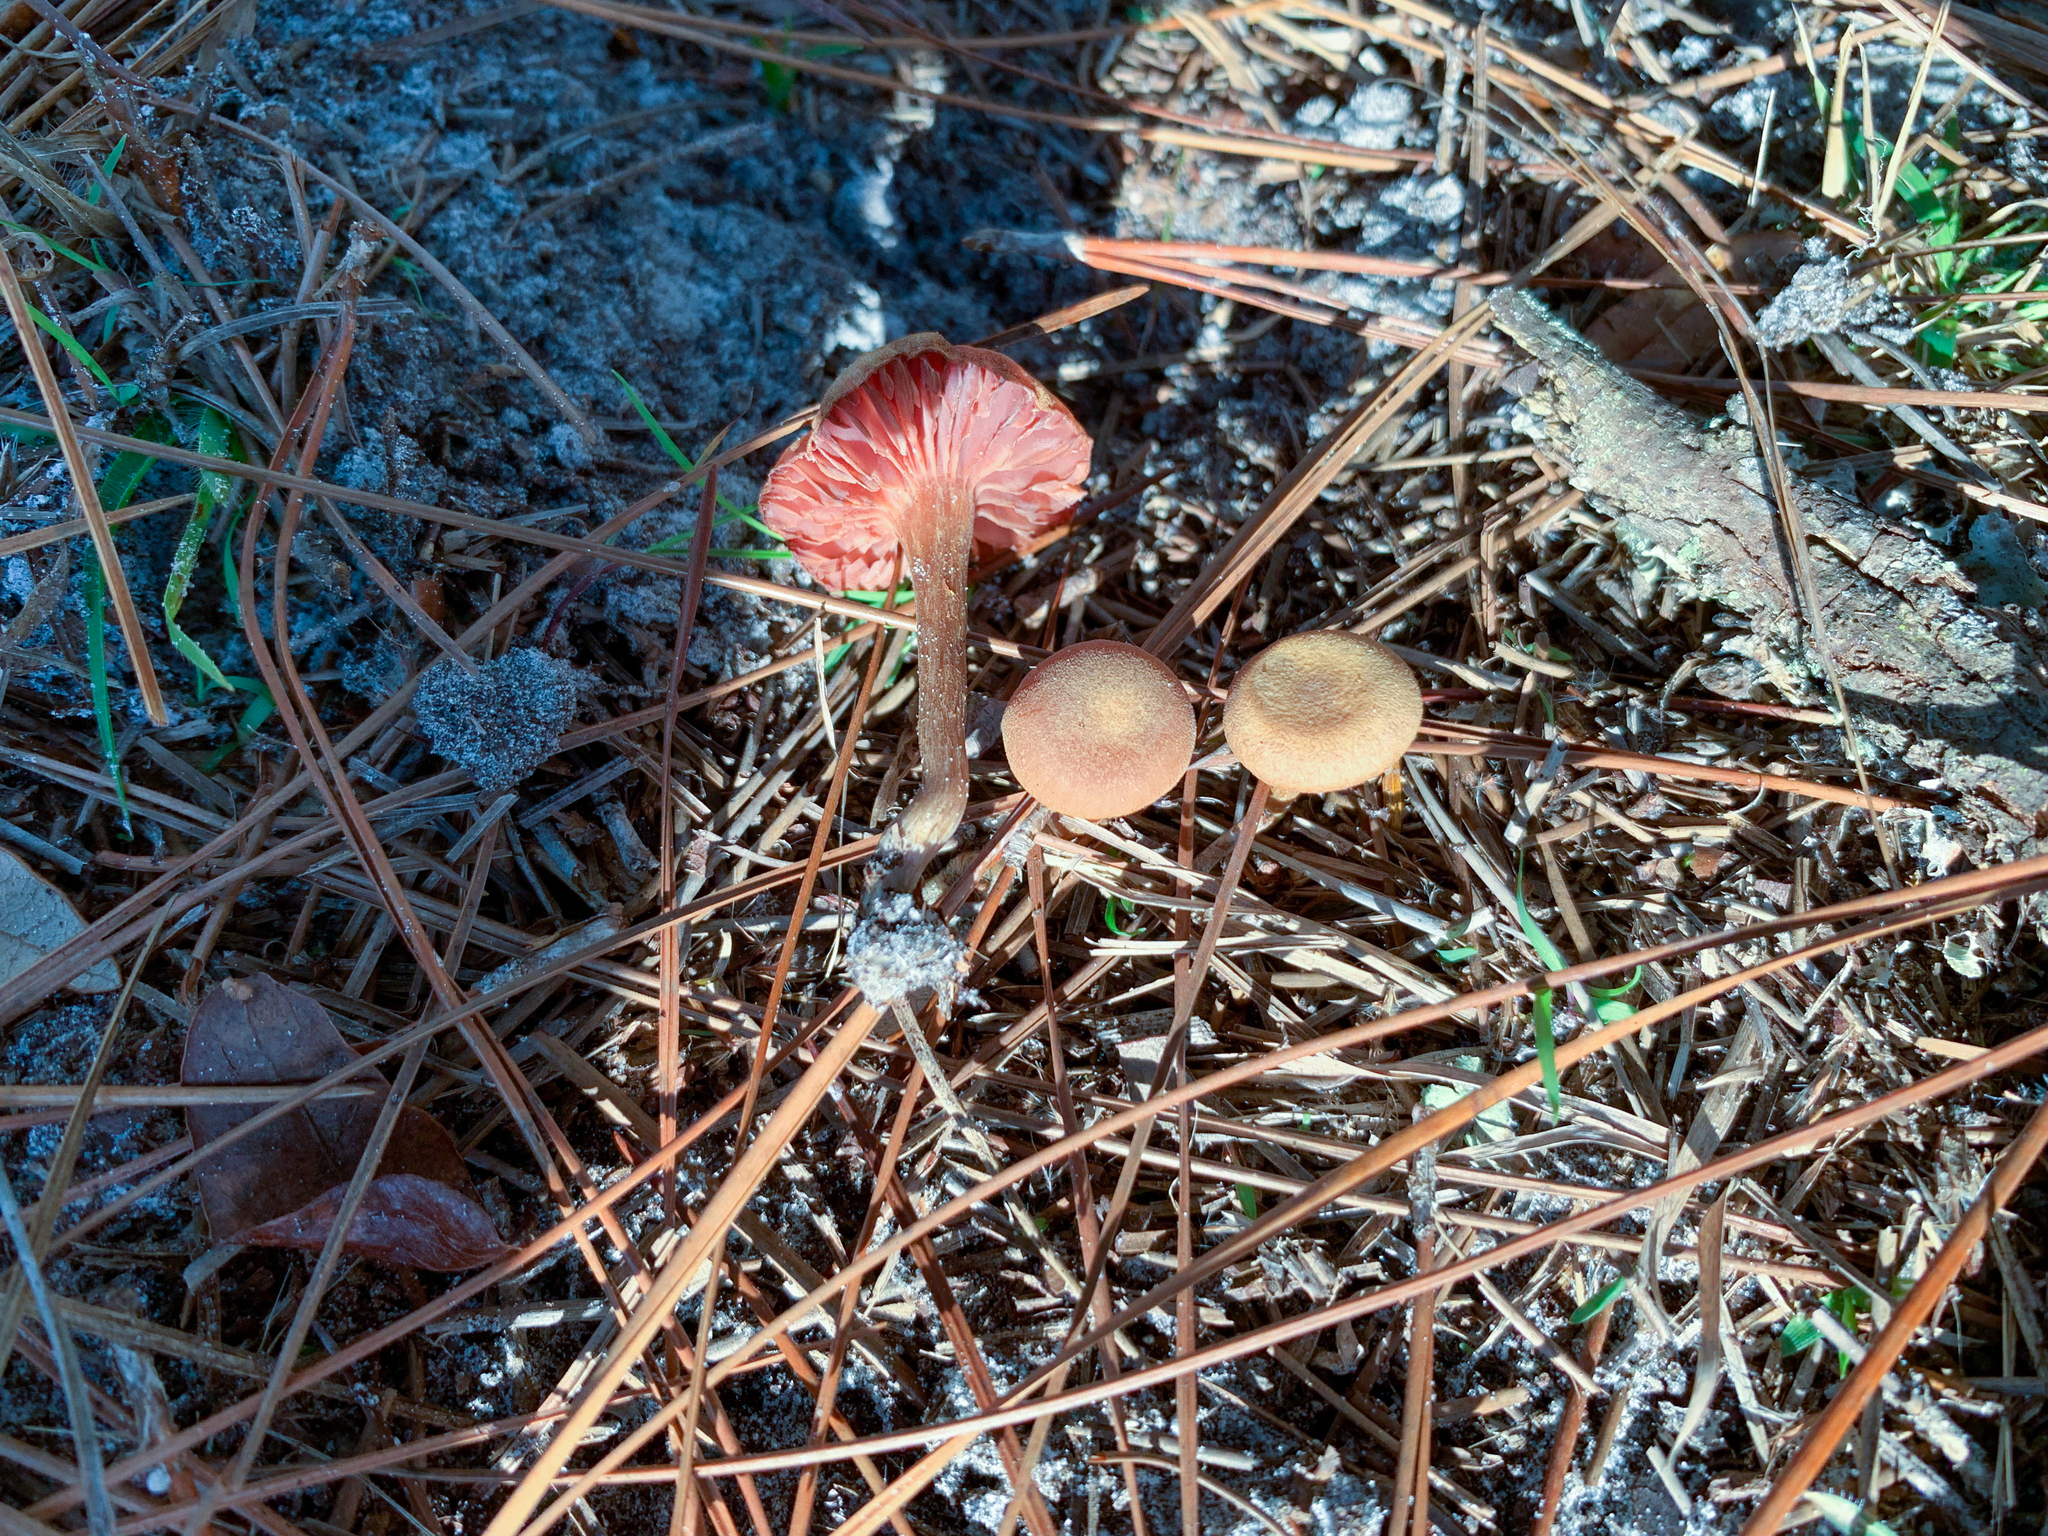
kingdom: Fungi
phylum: Basidiomycota
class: Agaricomycetes
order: Agaricales
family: Hydnangiaceae
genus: Laccaria
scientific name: Laccaria laccata
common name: Deceiver
